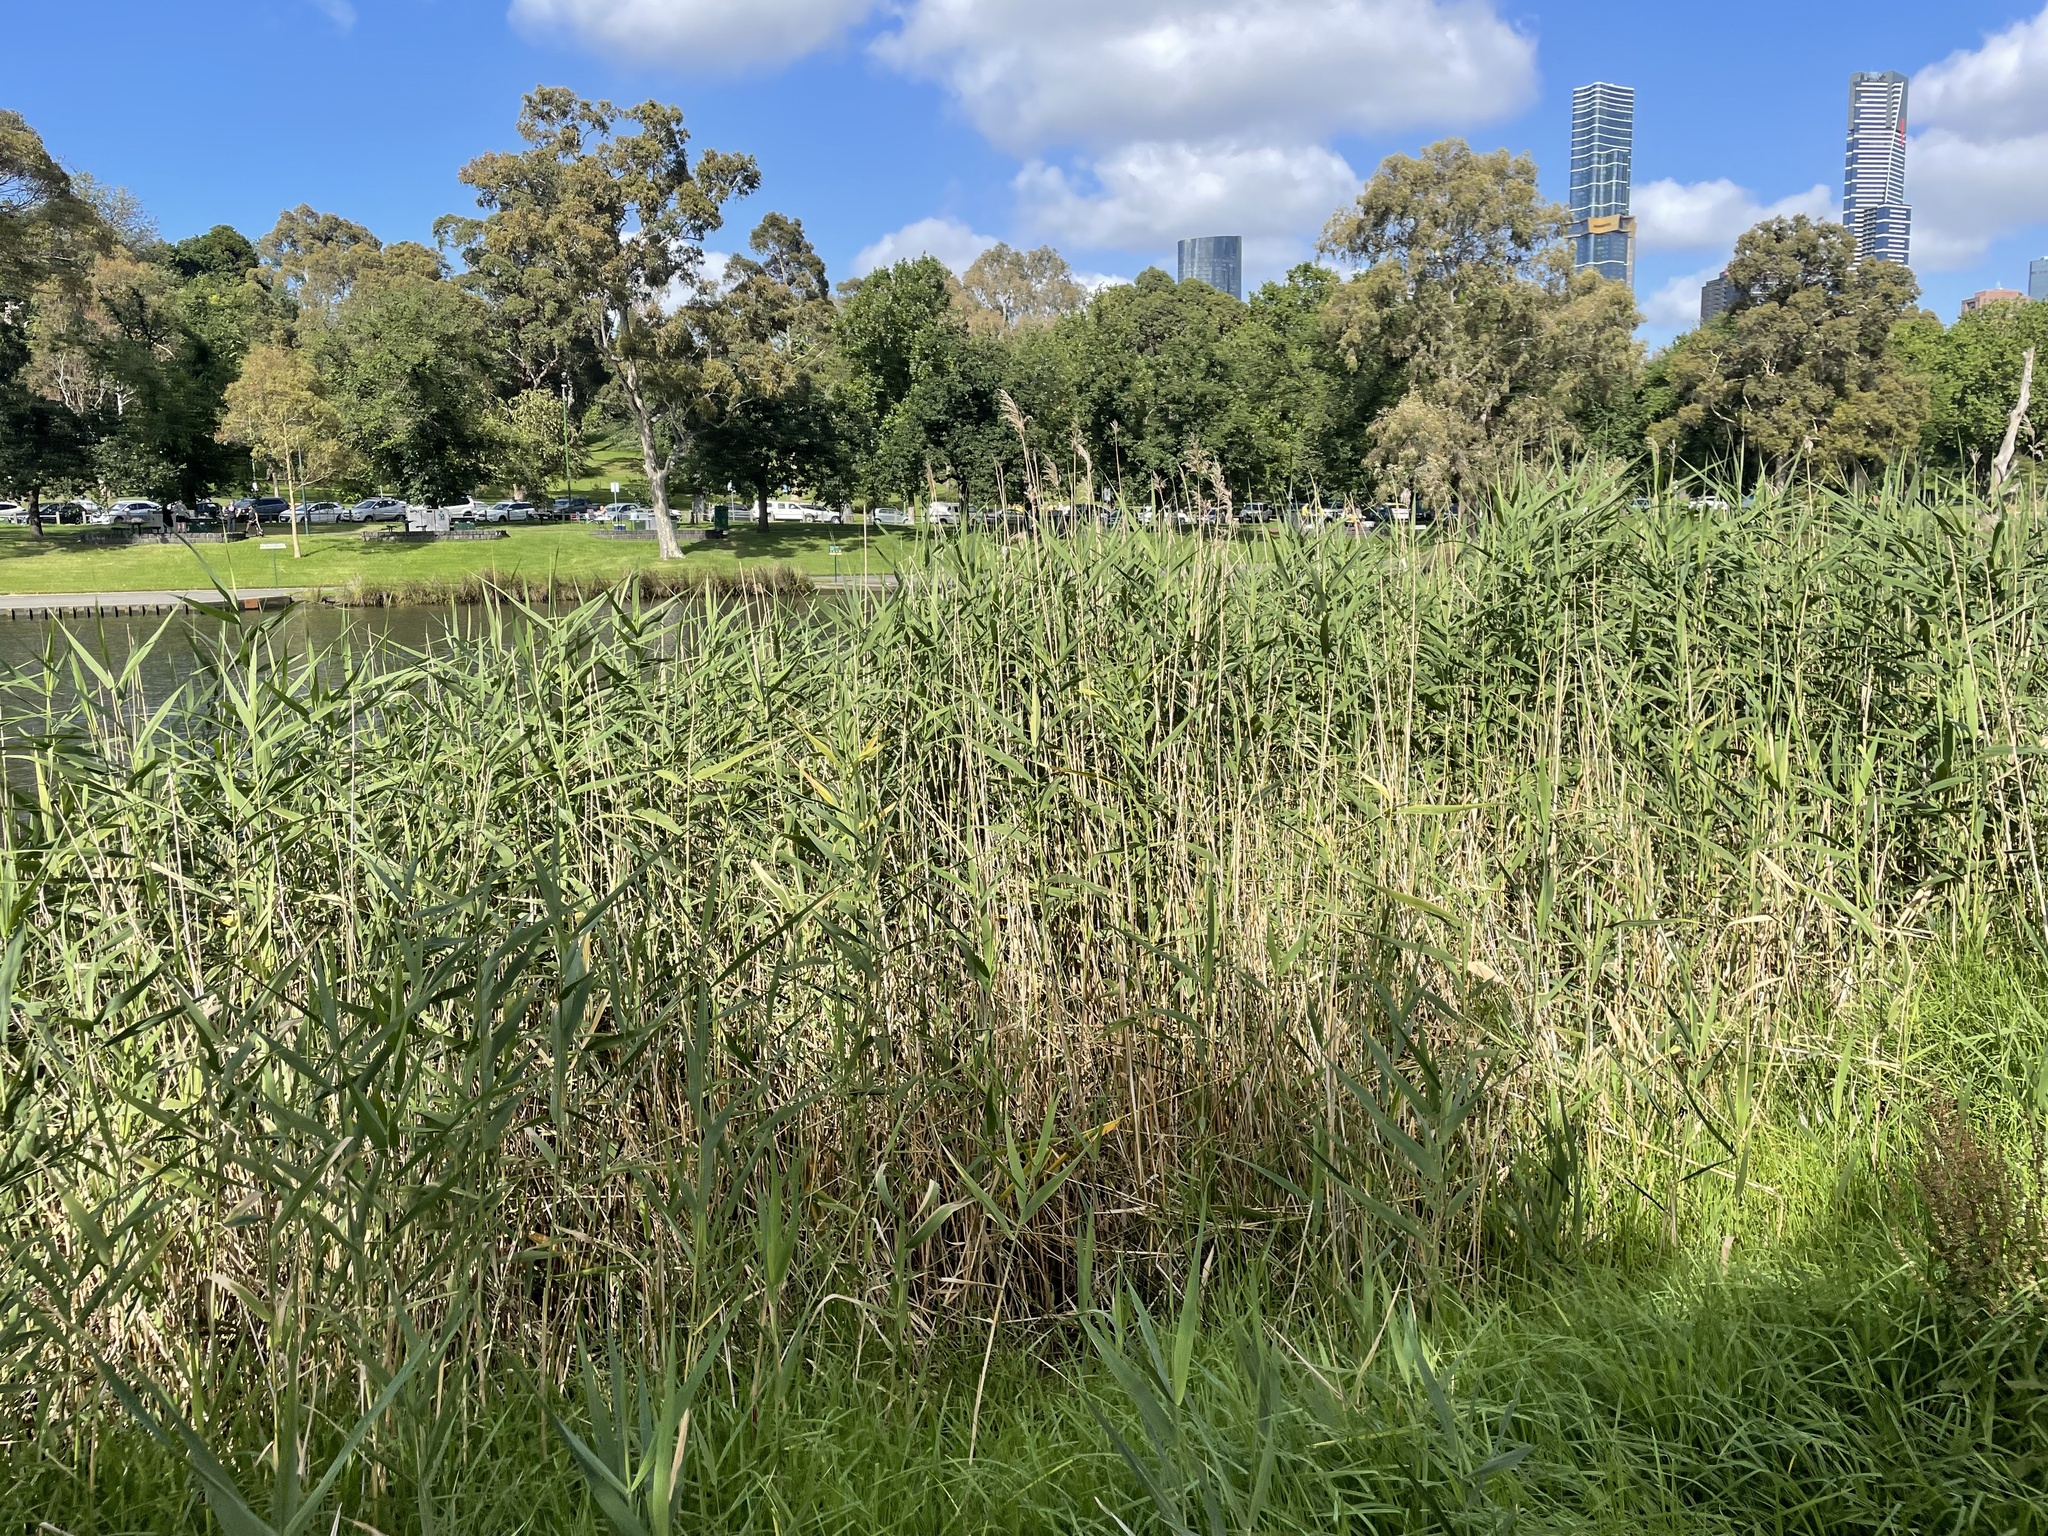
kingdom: Plantae
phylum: Tracheophyta
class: Liliopsida
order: Poales
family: Poaceae
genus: Phragmites
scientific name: Phragmites australis
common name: Common reed
